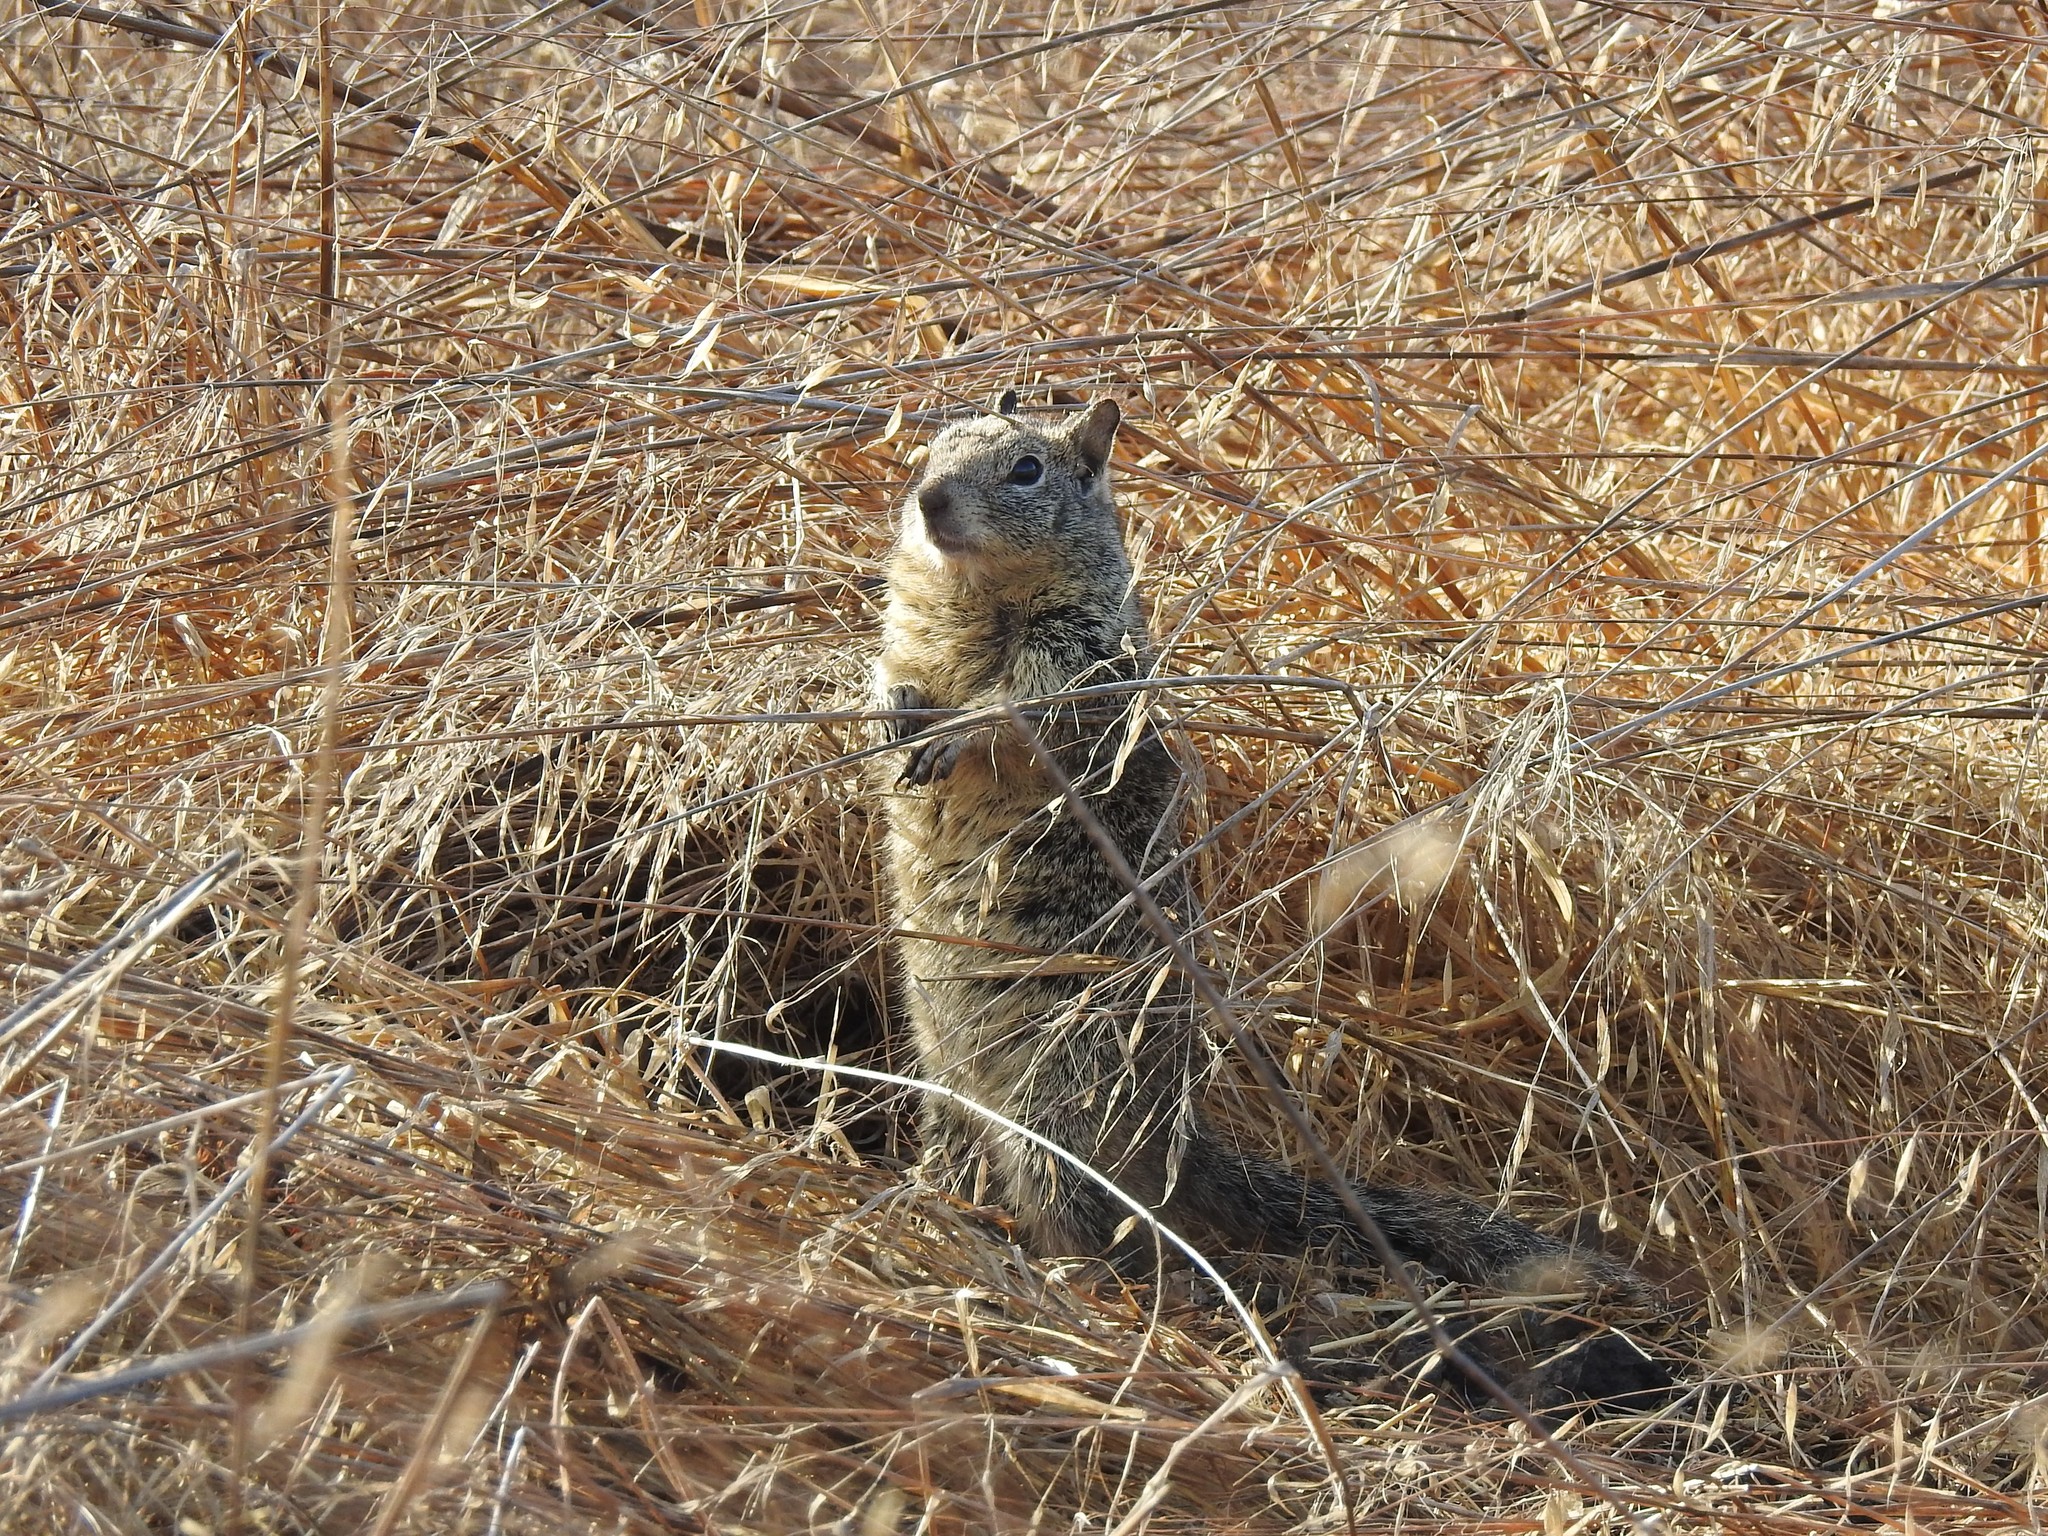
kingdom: Animalia
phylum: Chordata
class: Mammalia
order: Rodentia
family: Sciuridae
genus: Otospermophilus
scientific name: Otospermophilus beecheyi
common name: California ground squirrel
